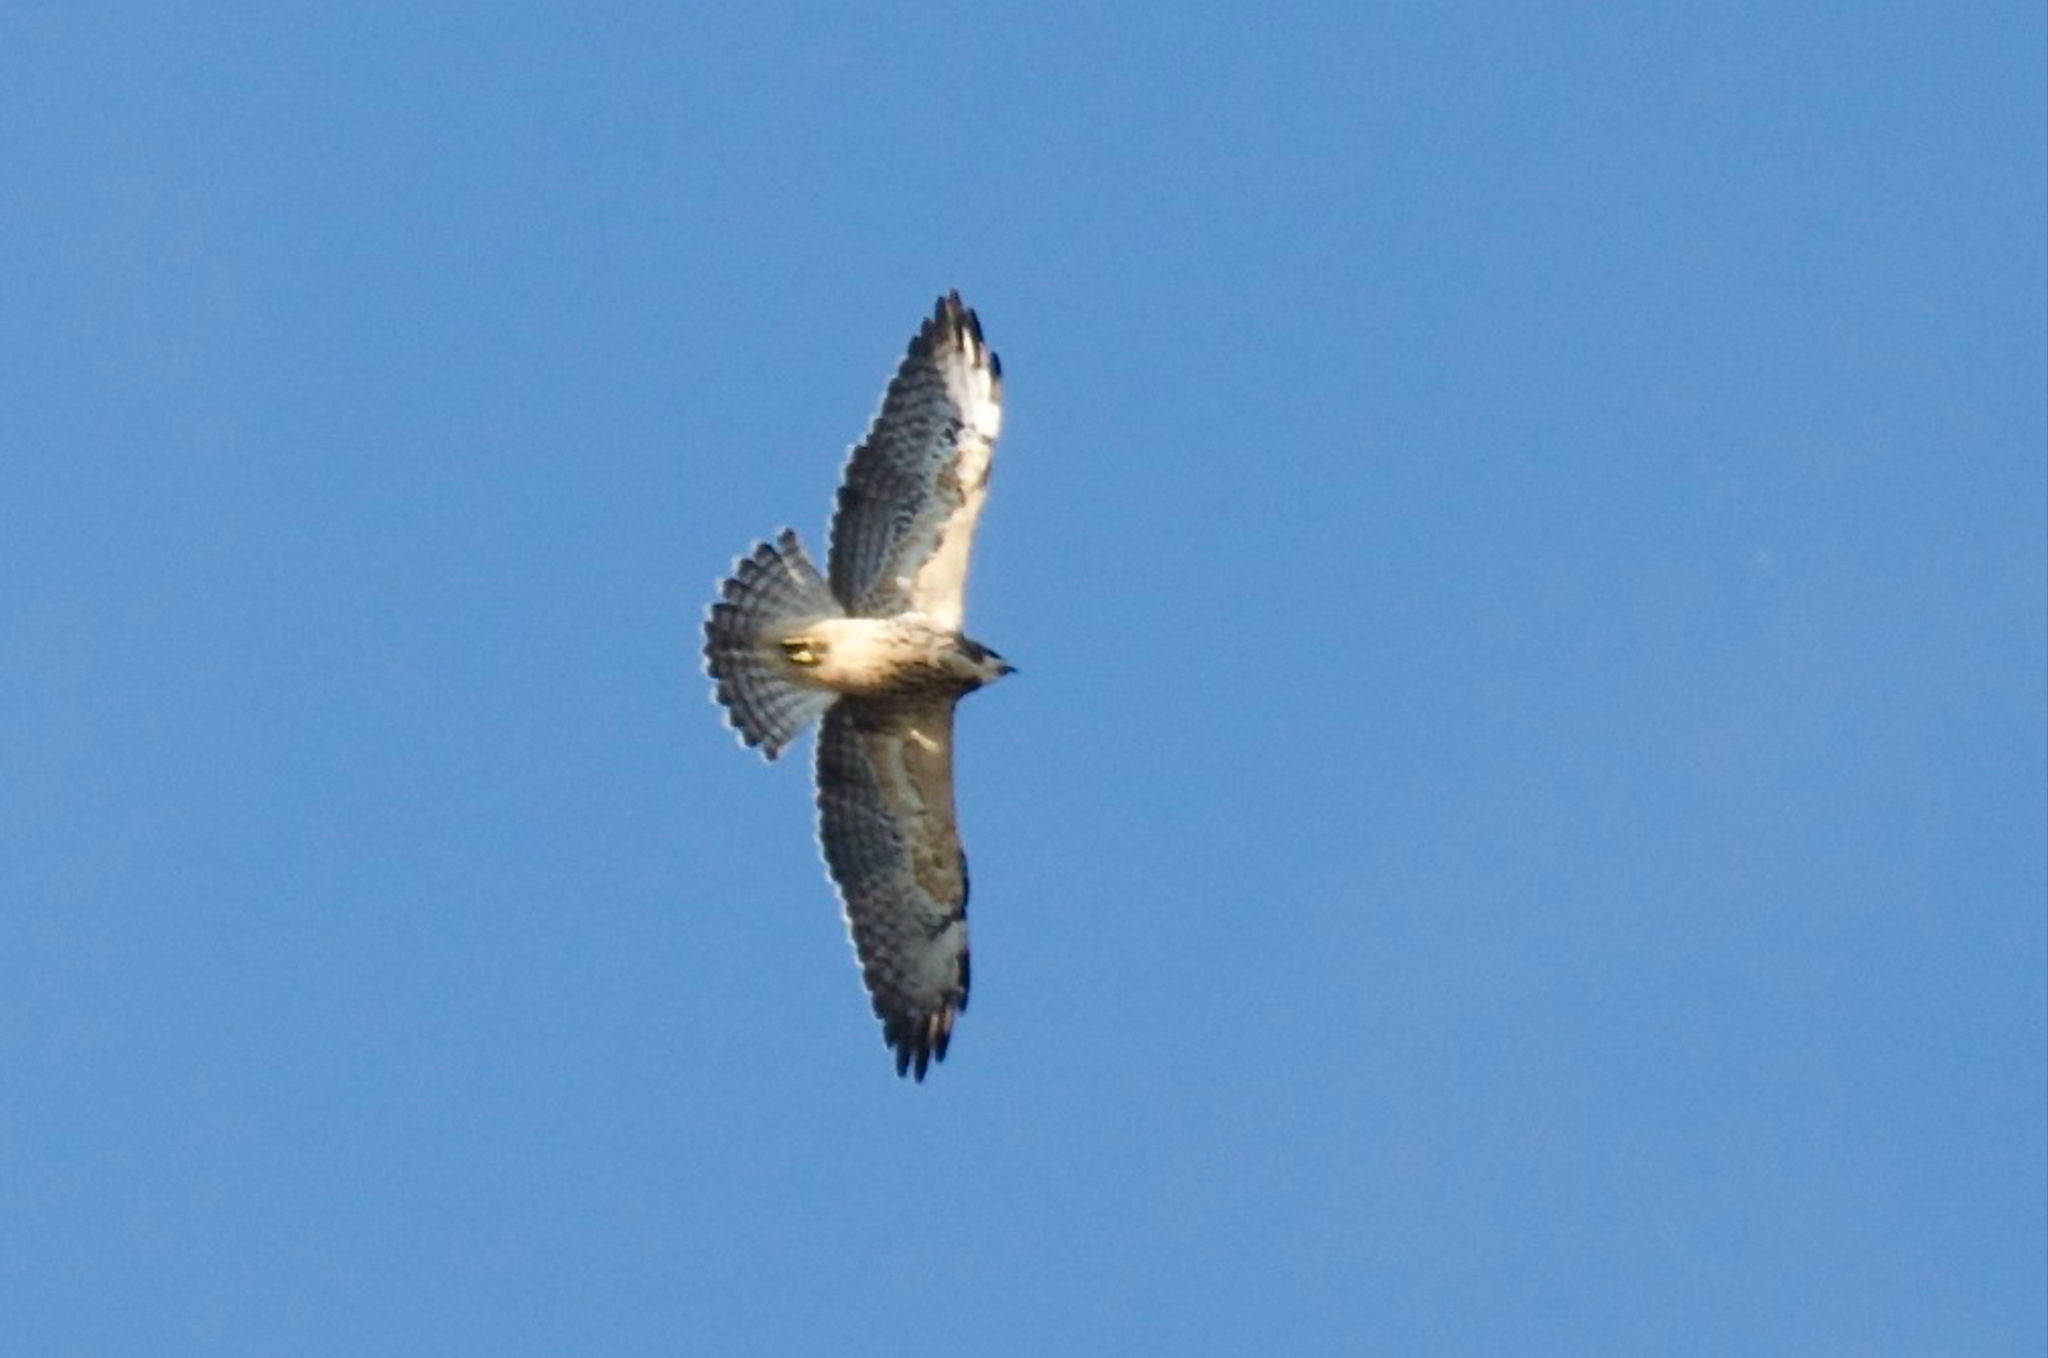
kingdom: Animalia
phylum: Chordata
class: Aves
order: Accipitriformes
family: Accipitridae
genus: Buteo
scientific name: Buteo swainsoni
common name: Swainson's hawk
